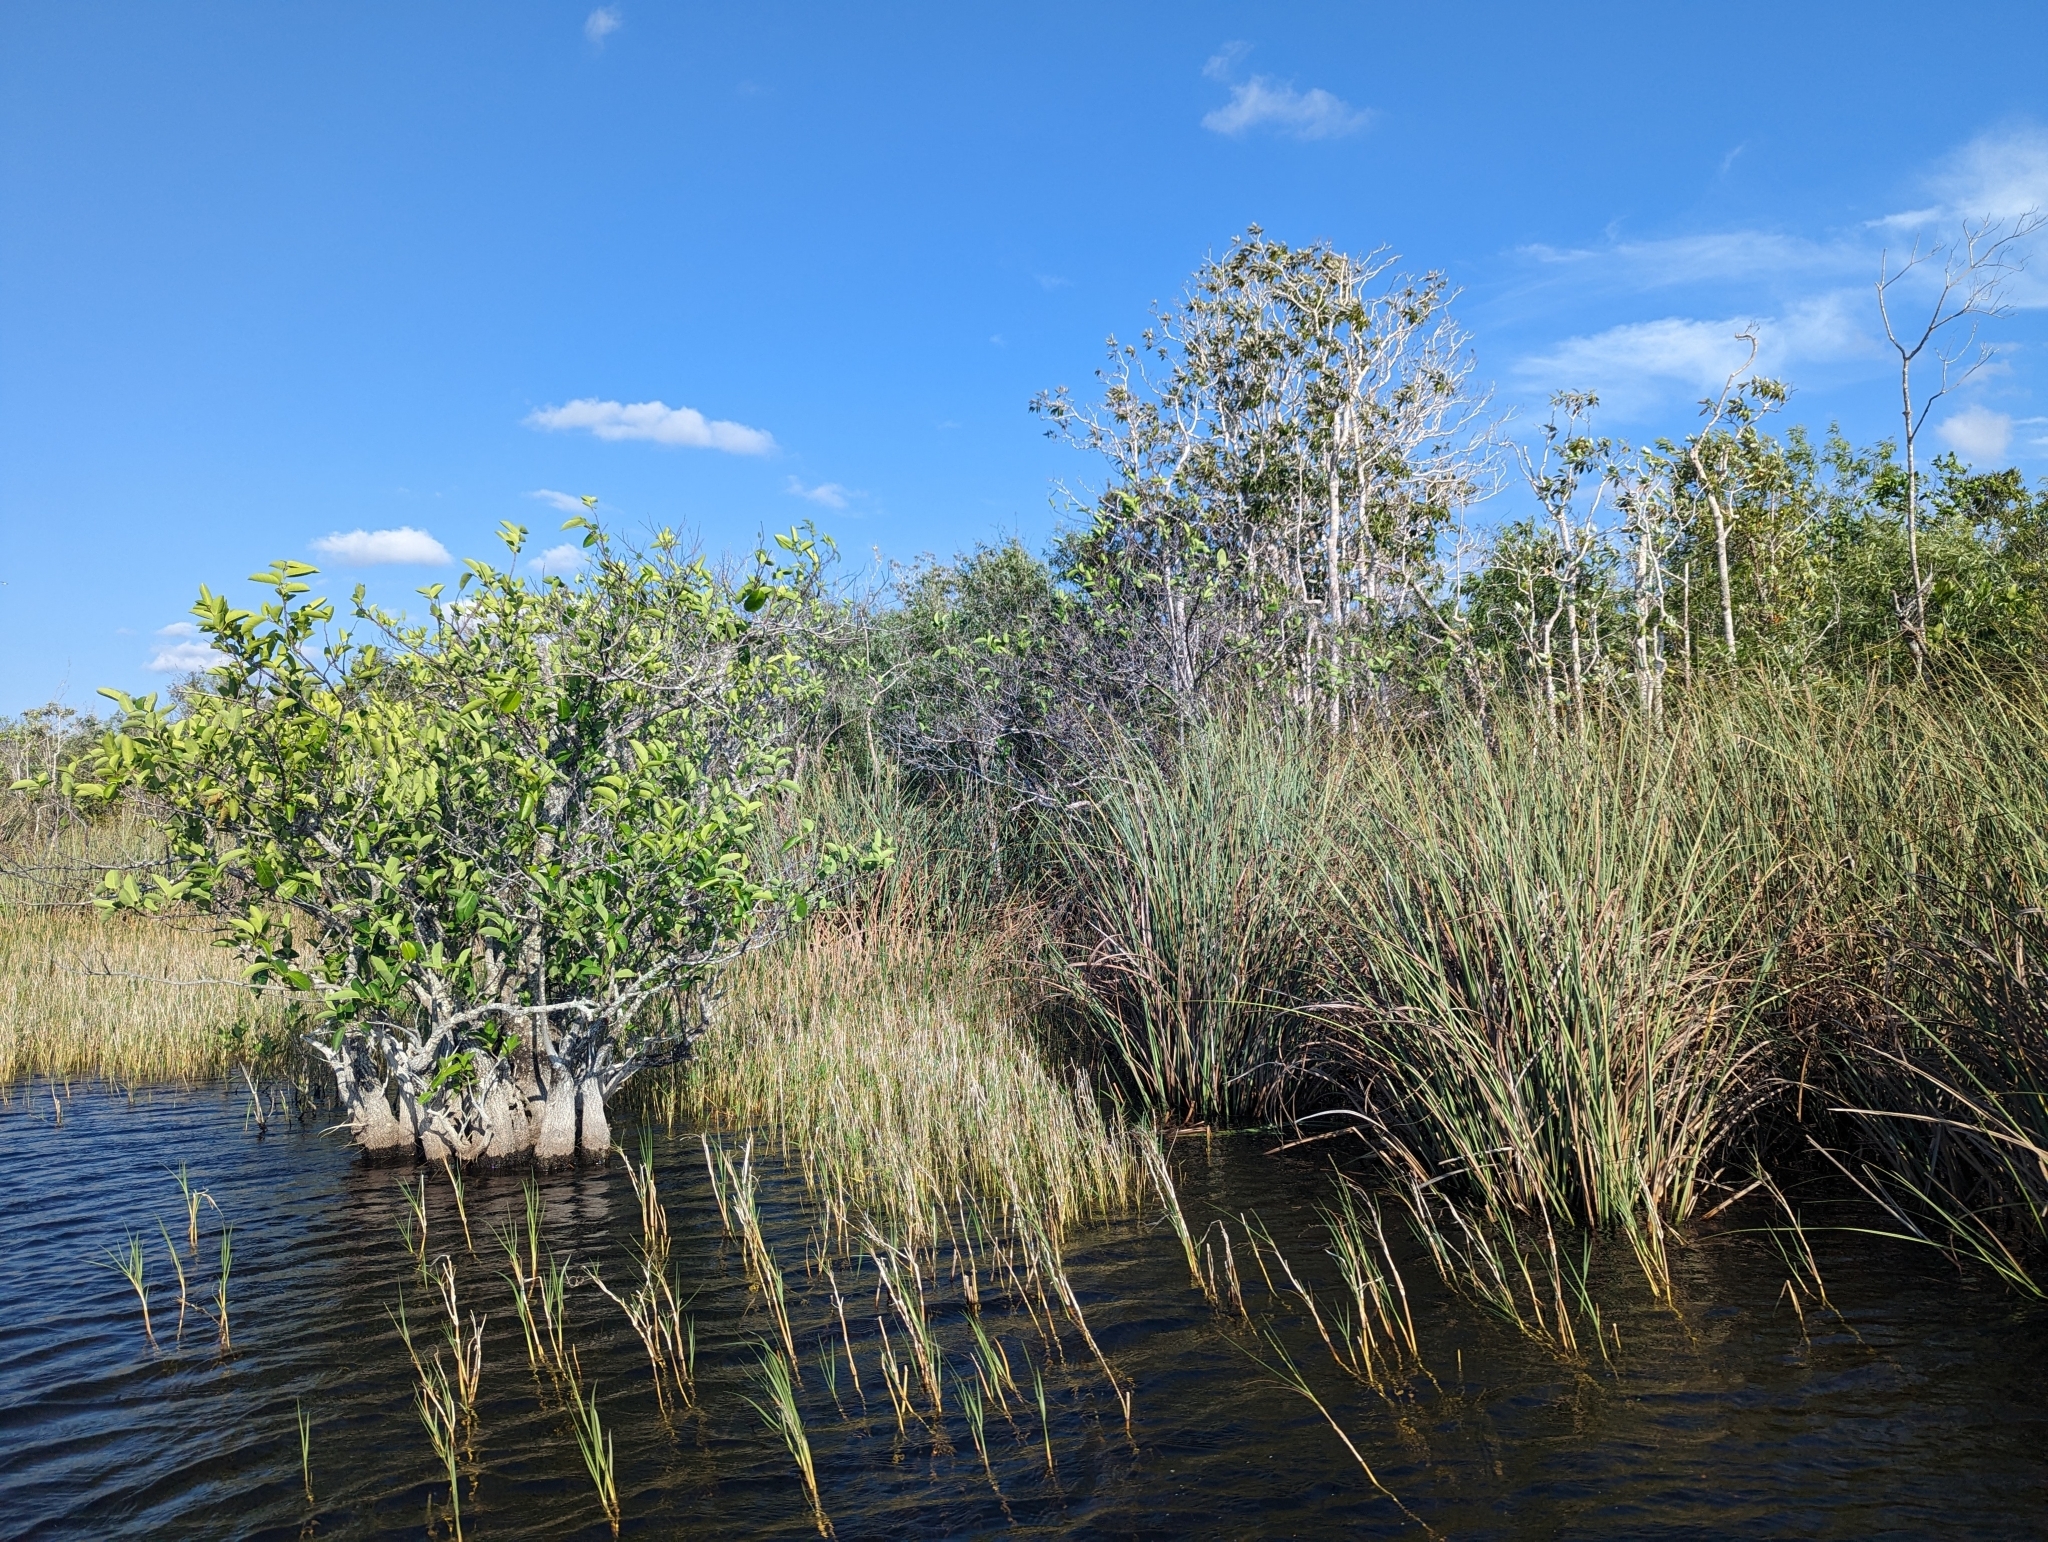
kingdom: Plantae
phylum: Tracheophyta
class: Magnoliopsida
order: Magnoliales
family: Annonaceae
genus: Annona
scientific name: Annona glabra
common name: Monkey apple
